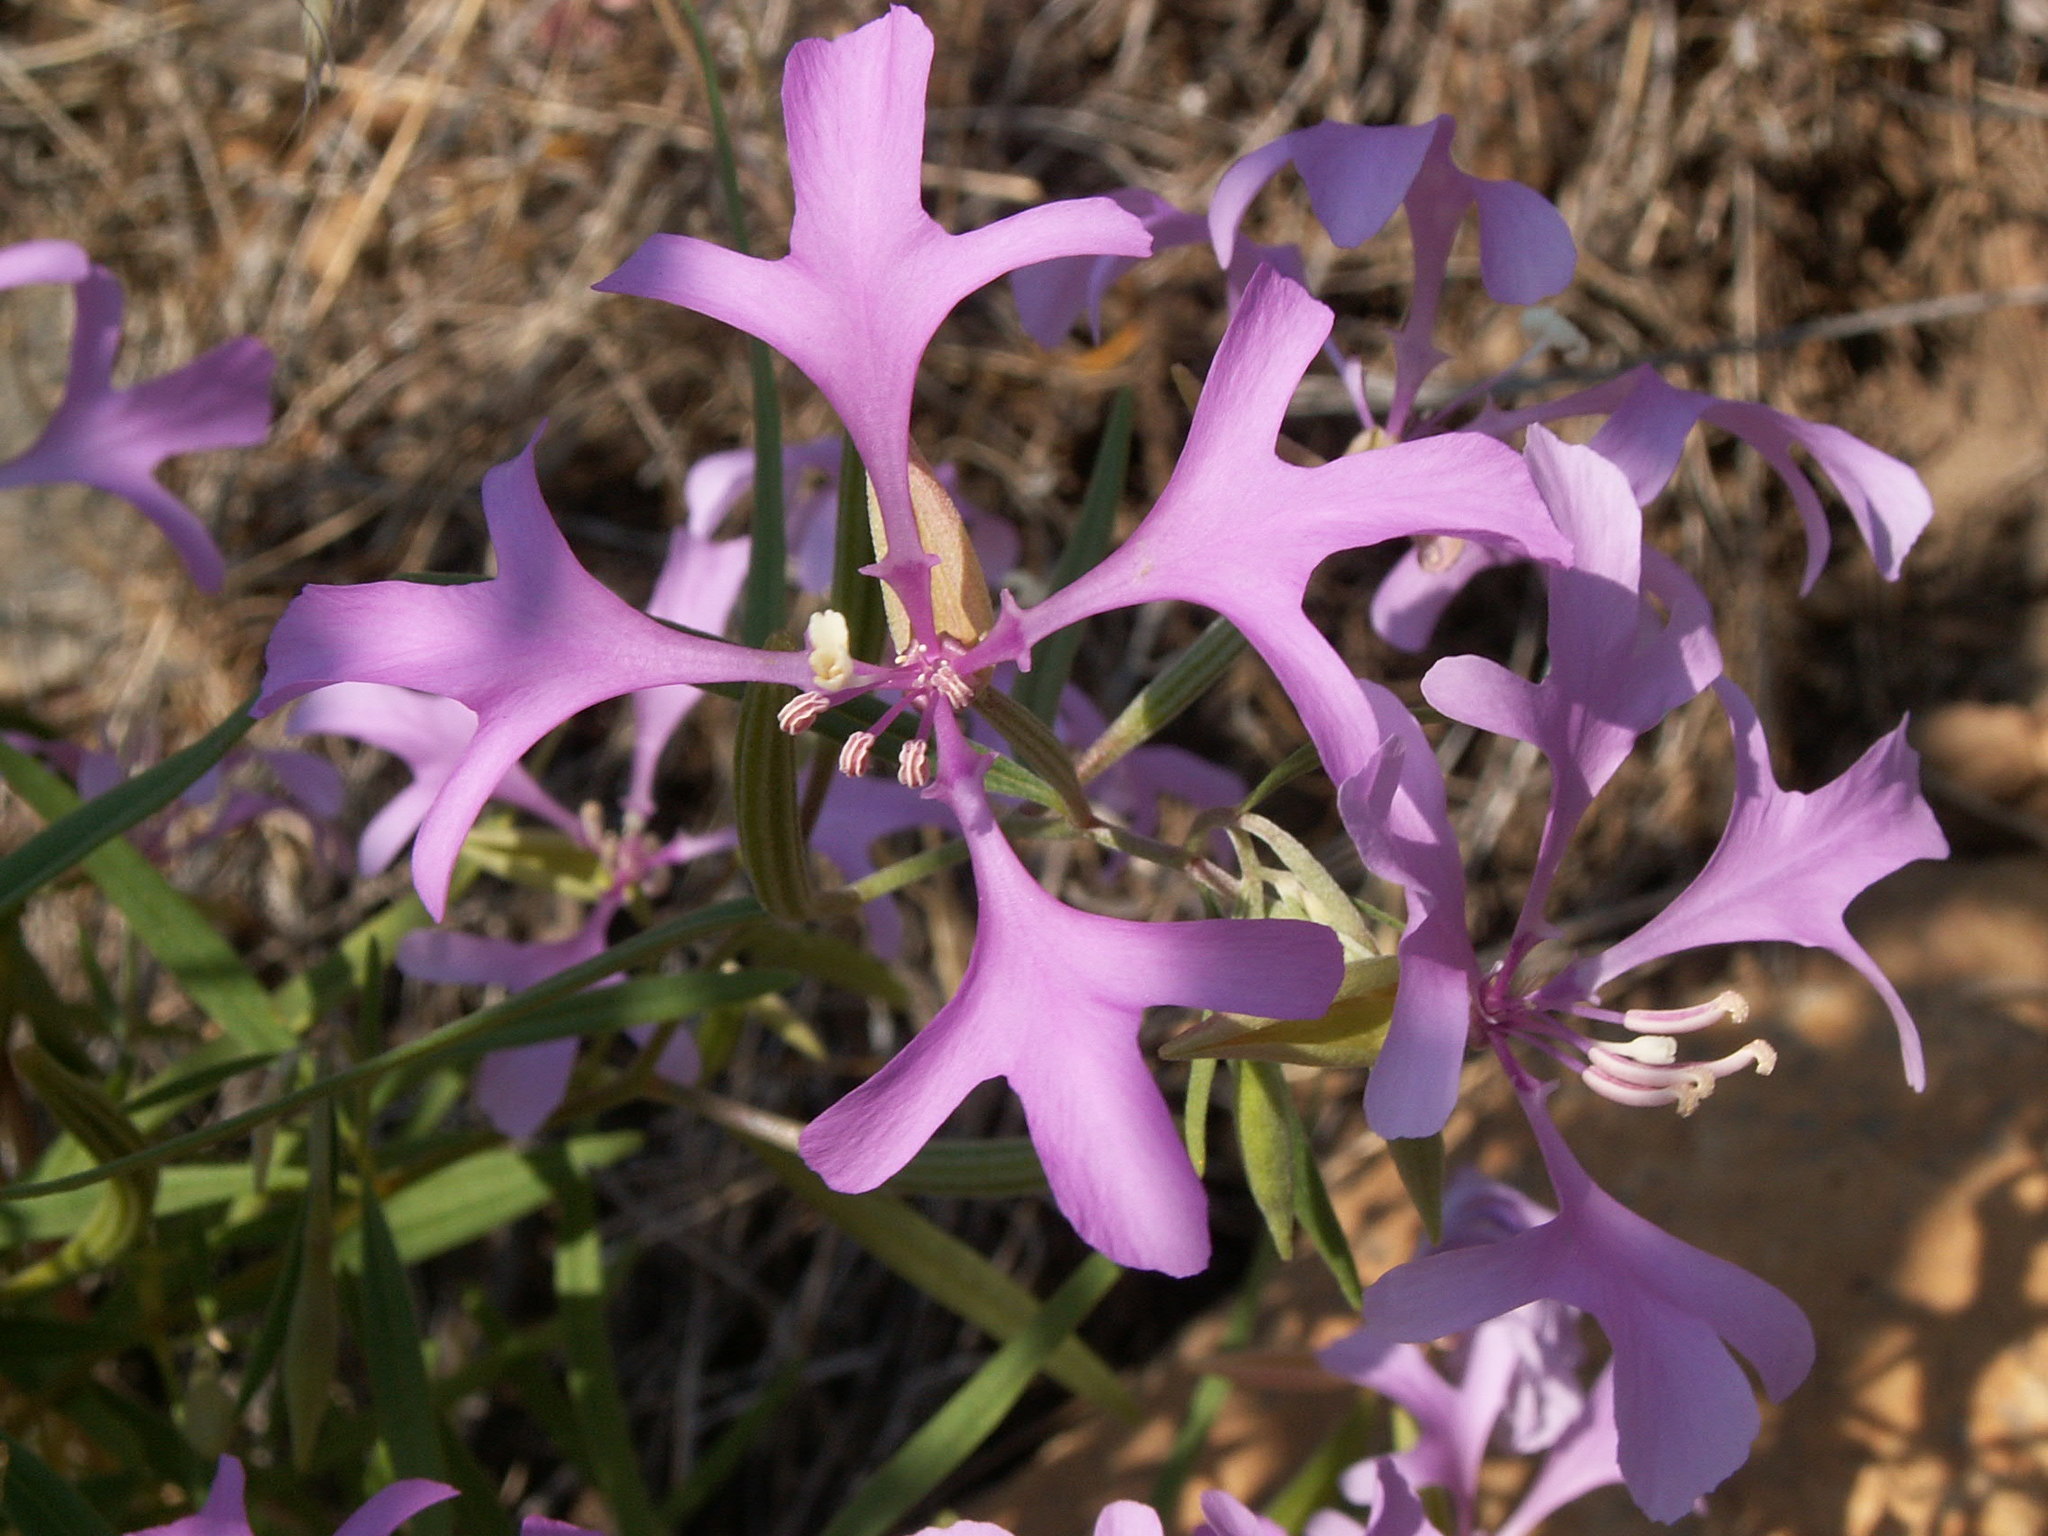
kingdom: Plantae
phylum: Tracheophyta
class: Magnoliopsida
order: Myrtales
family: Onagraceae
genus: Clarkia
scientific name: Clarkia pulchella
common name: Deer horn
